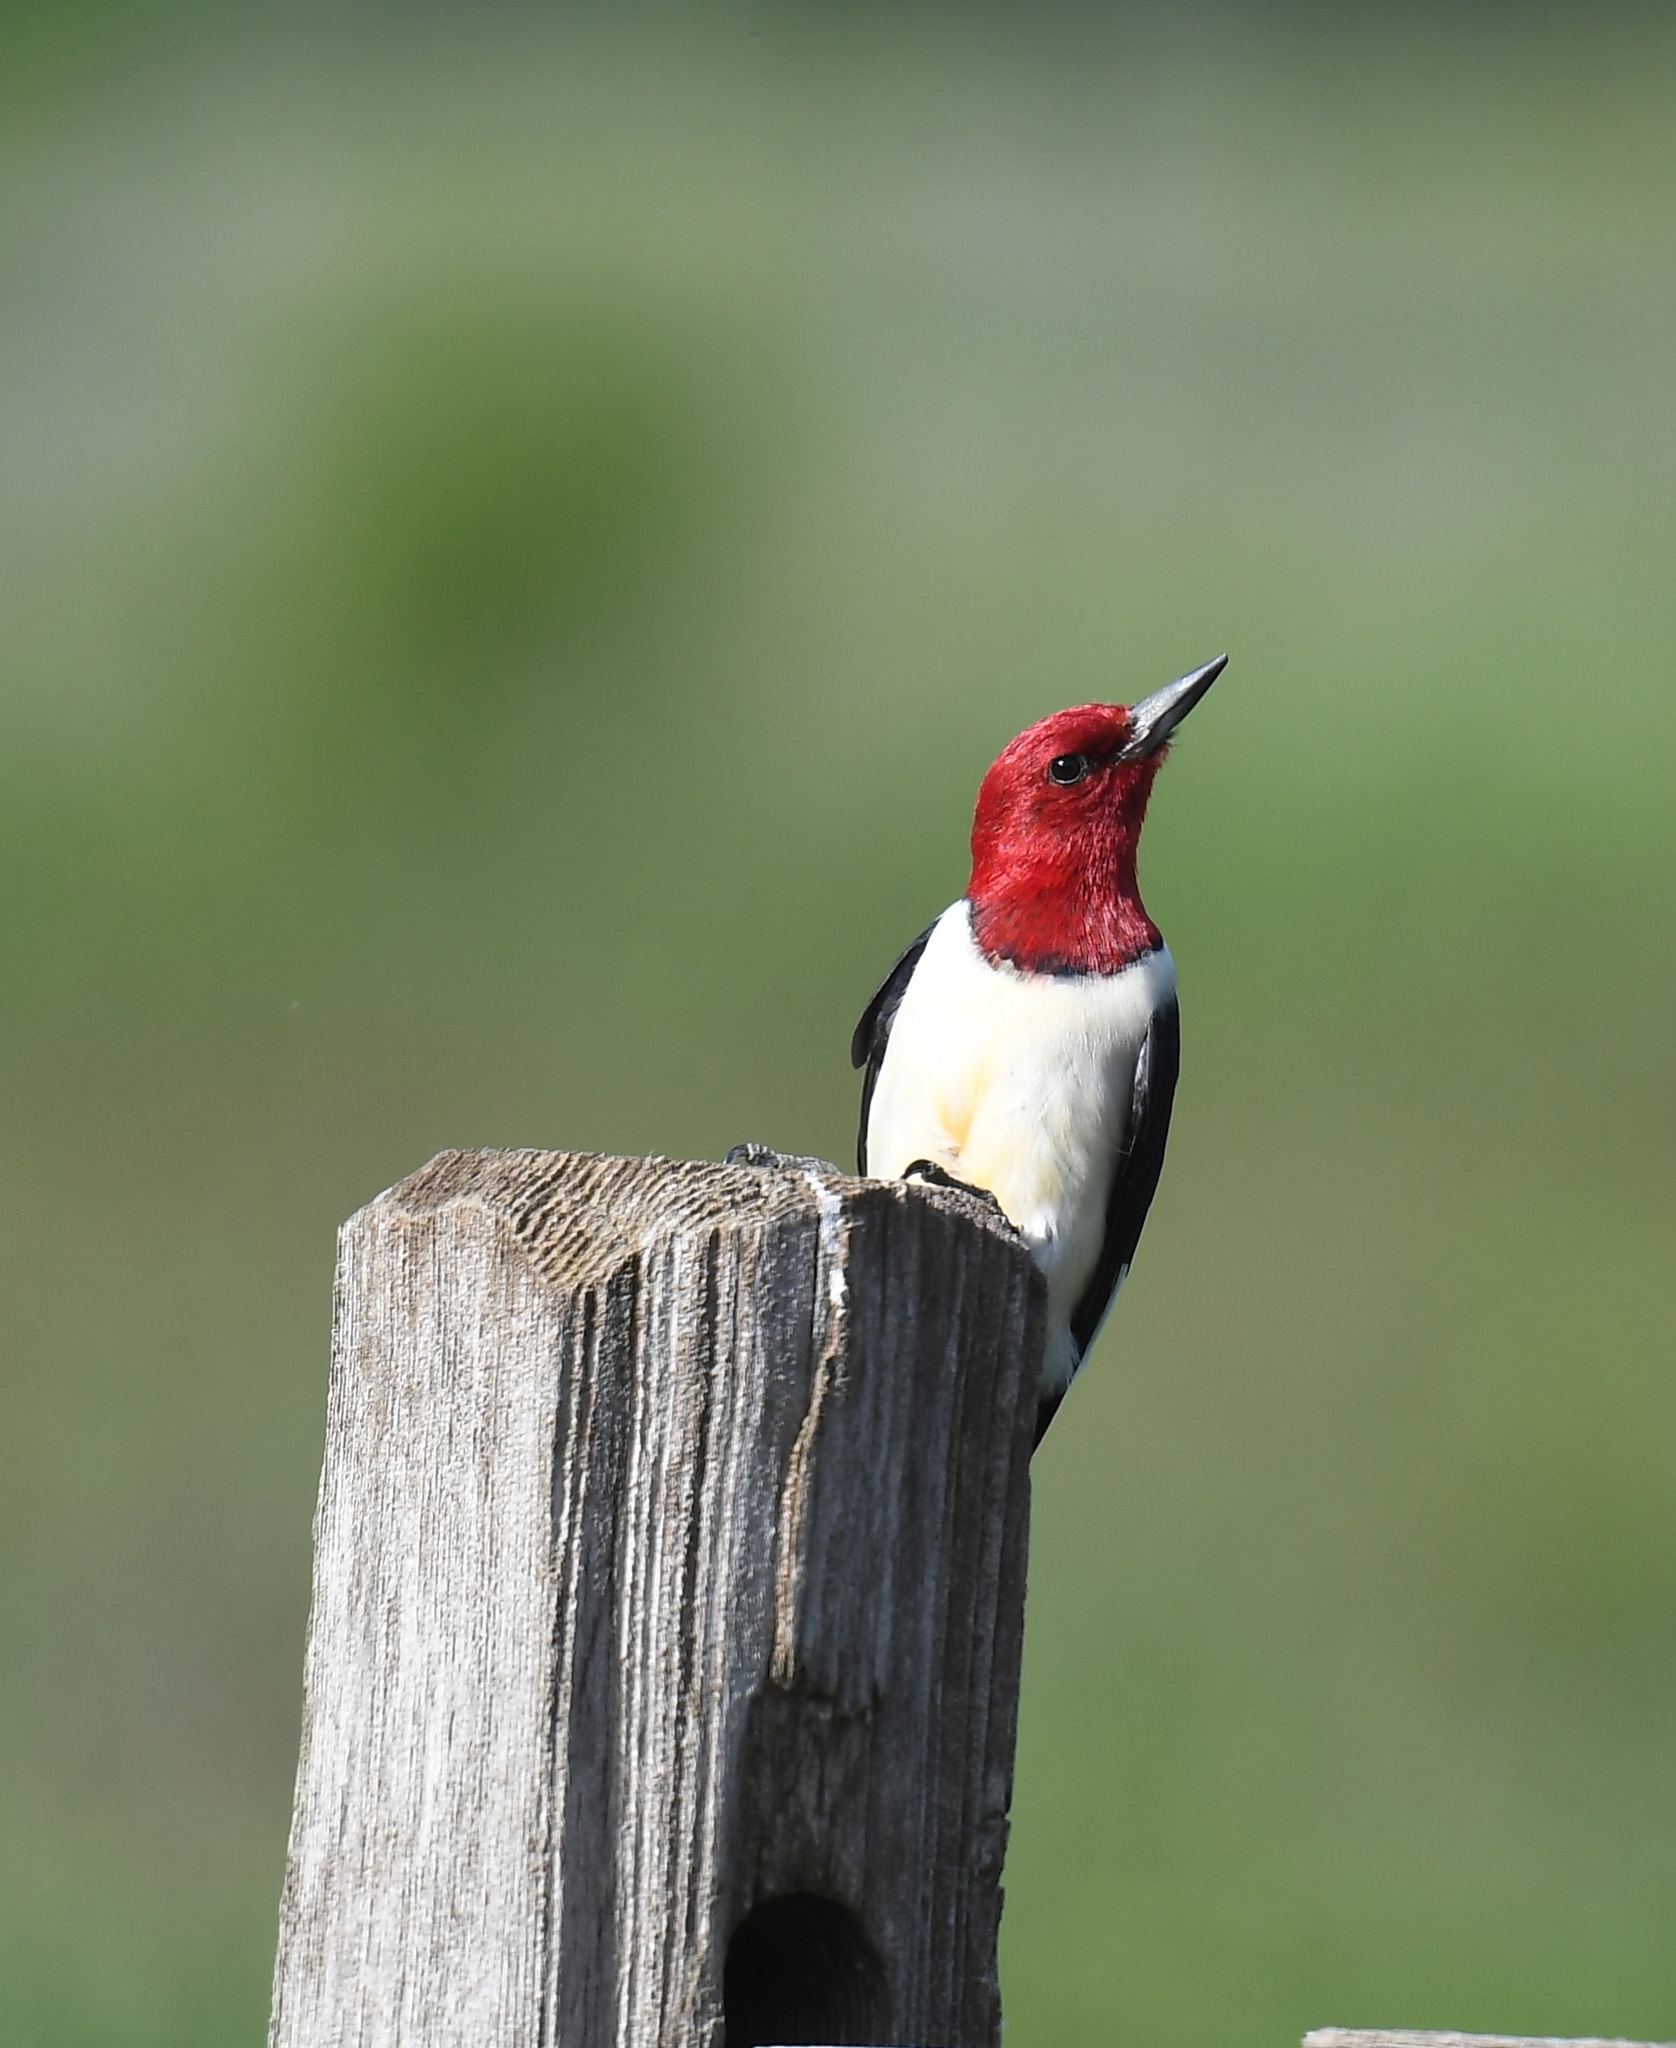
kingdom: Animalia
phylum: Chordata
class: Aves
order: Piciformes
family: Picidae
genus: Melanerpes
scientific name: Melanerpes erythrocephalus
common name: Red-headed woodpecker
